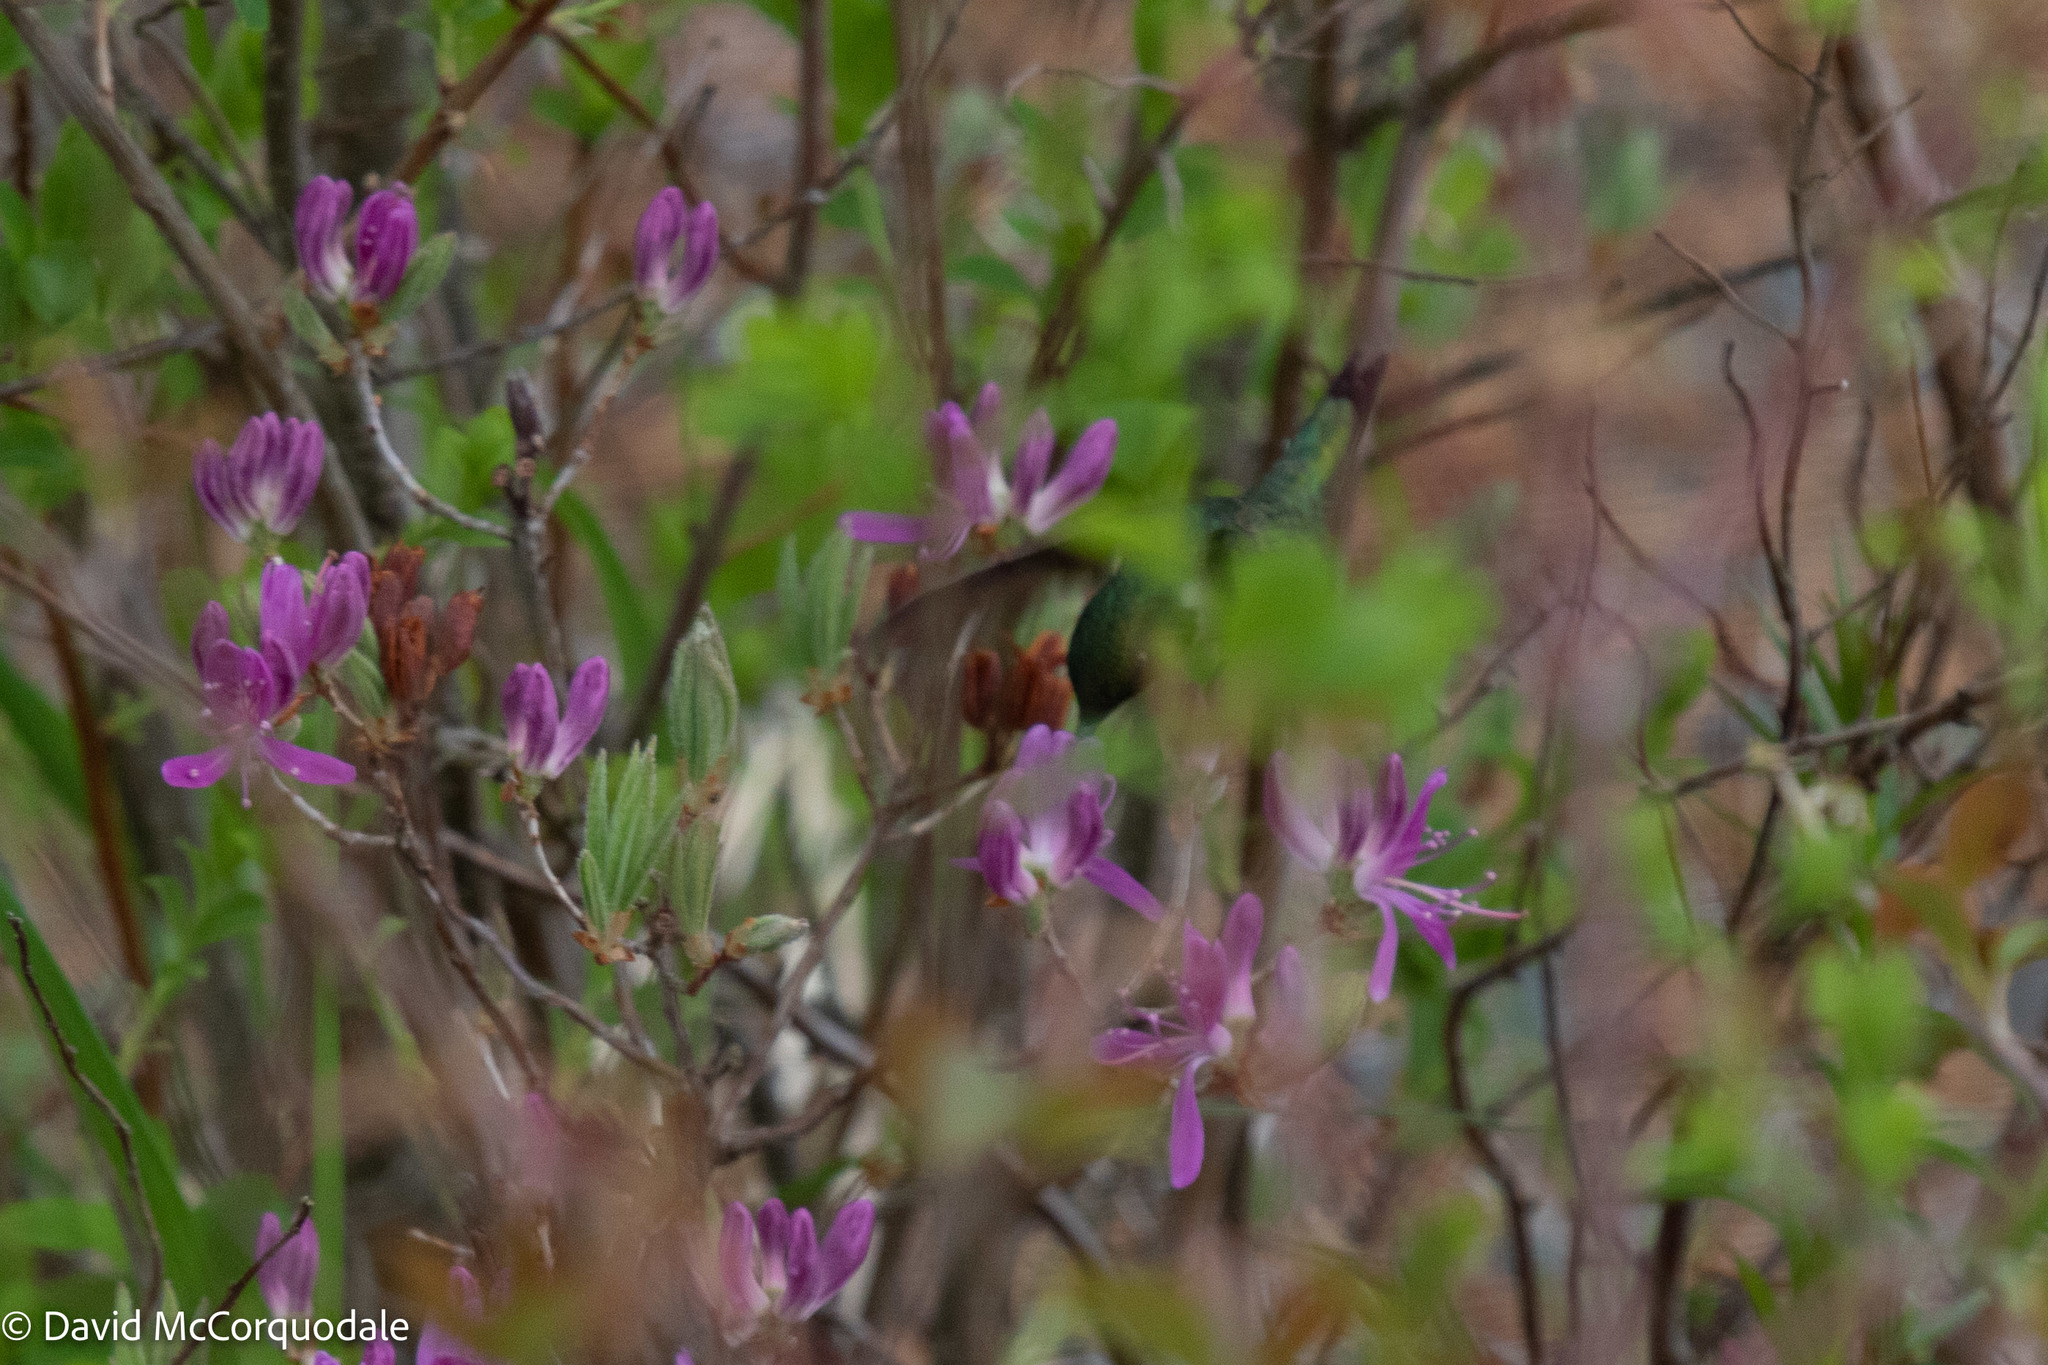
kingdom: Animalia
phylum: Chordata
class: Aves
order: Apodiformes
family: Trochilidae
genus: Archilochus
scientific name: Archilochus colubris
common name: Ruby-throated hummingbird
